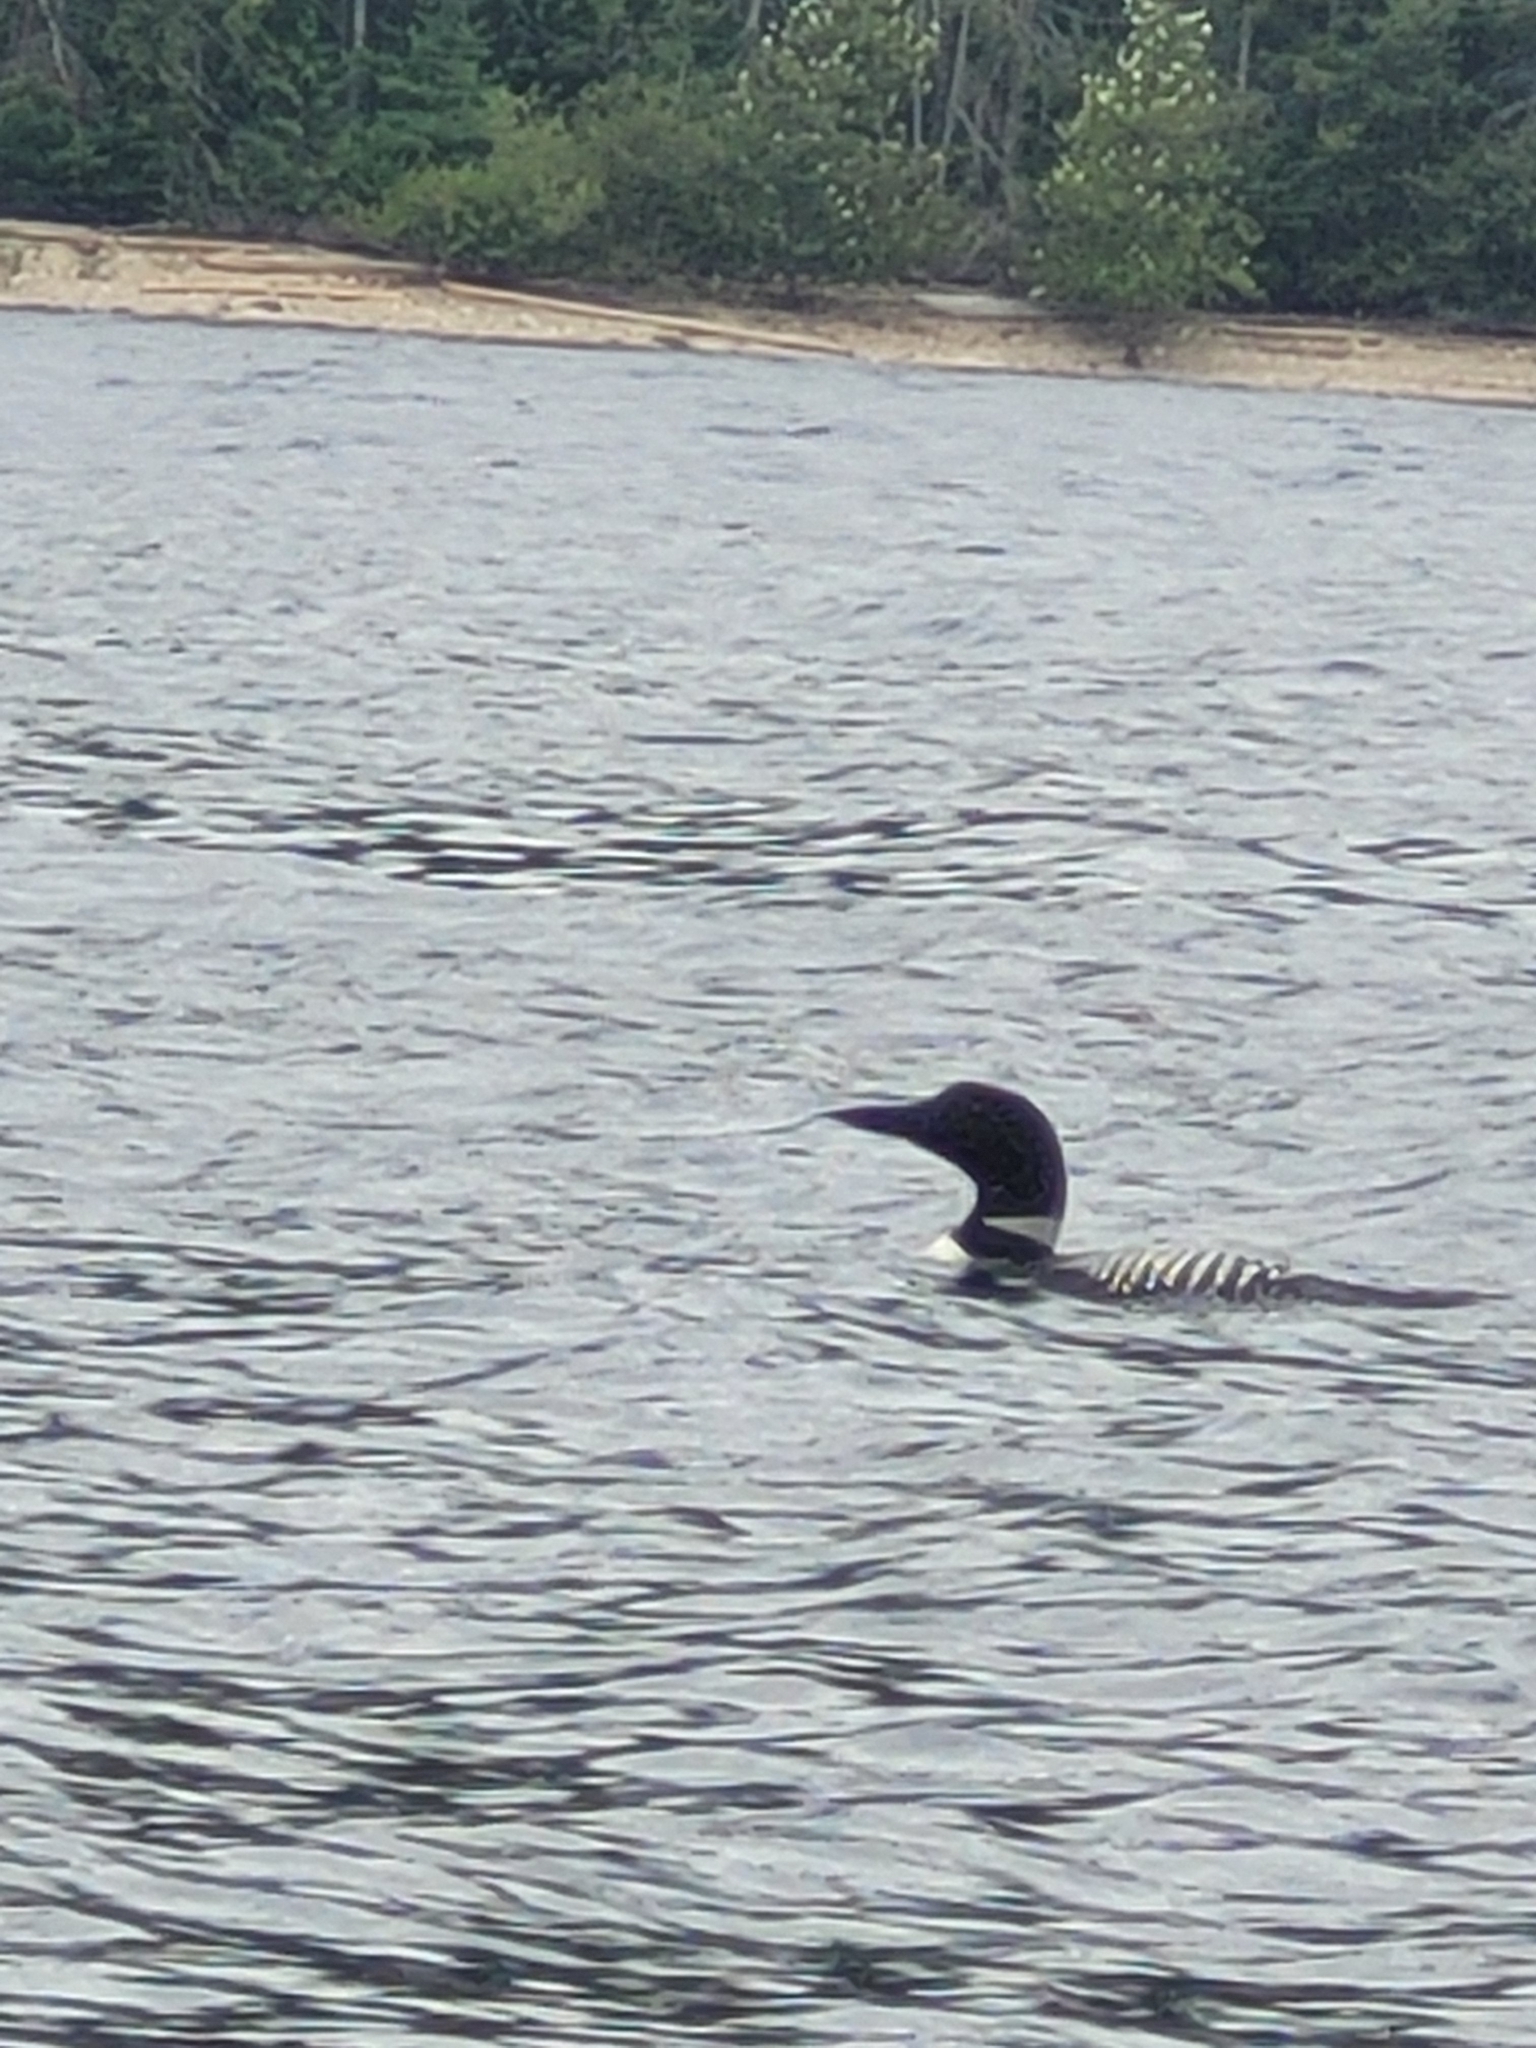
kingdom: Animalia
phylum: Chordata
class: Aves
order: Gaviiformes
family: Gaviidae
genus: Gavia
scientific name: Gavia immer
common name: Common loon
